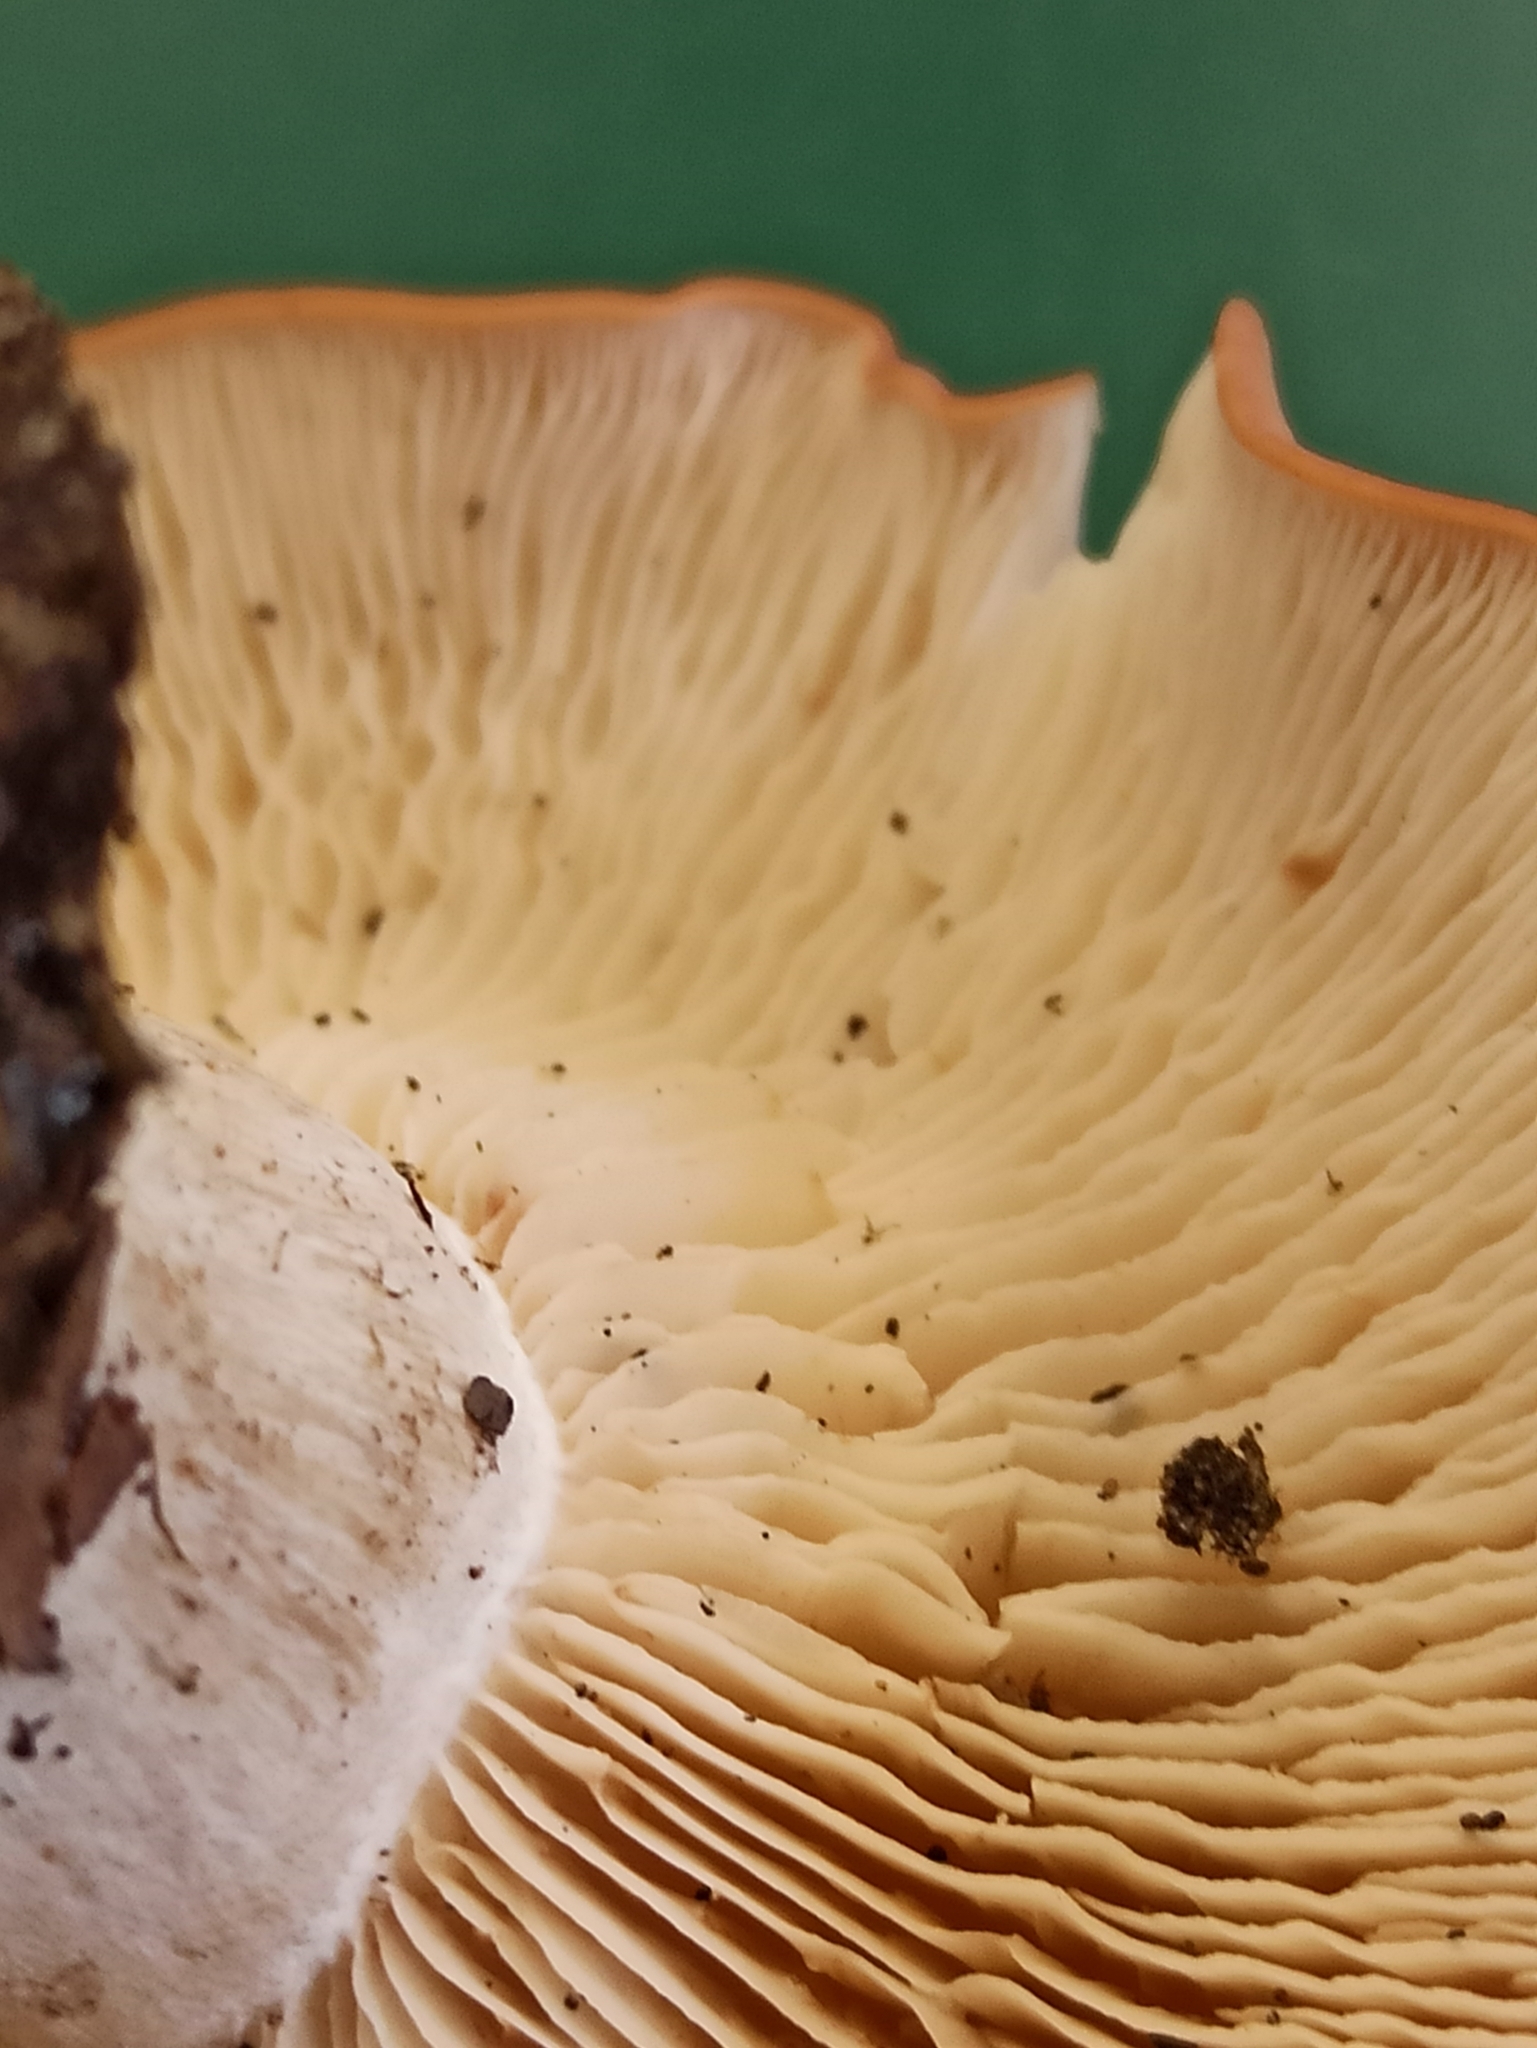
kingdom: Fungi
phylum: Basidiomycota
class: Agaricomycetes
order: Agaricales
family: Entolomataceae
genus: Clitopilus
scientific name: Clitopilus geminus
